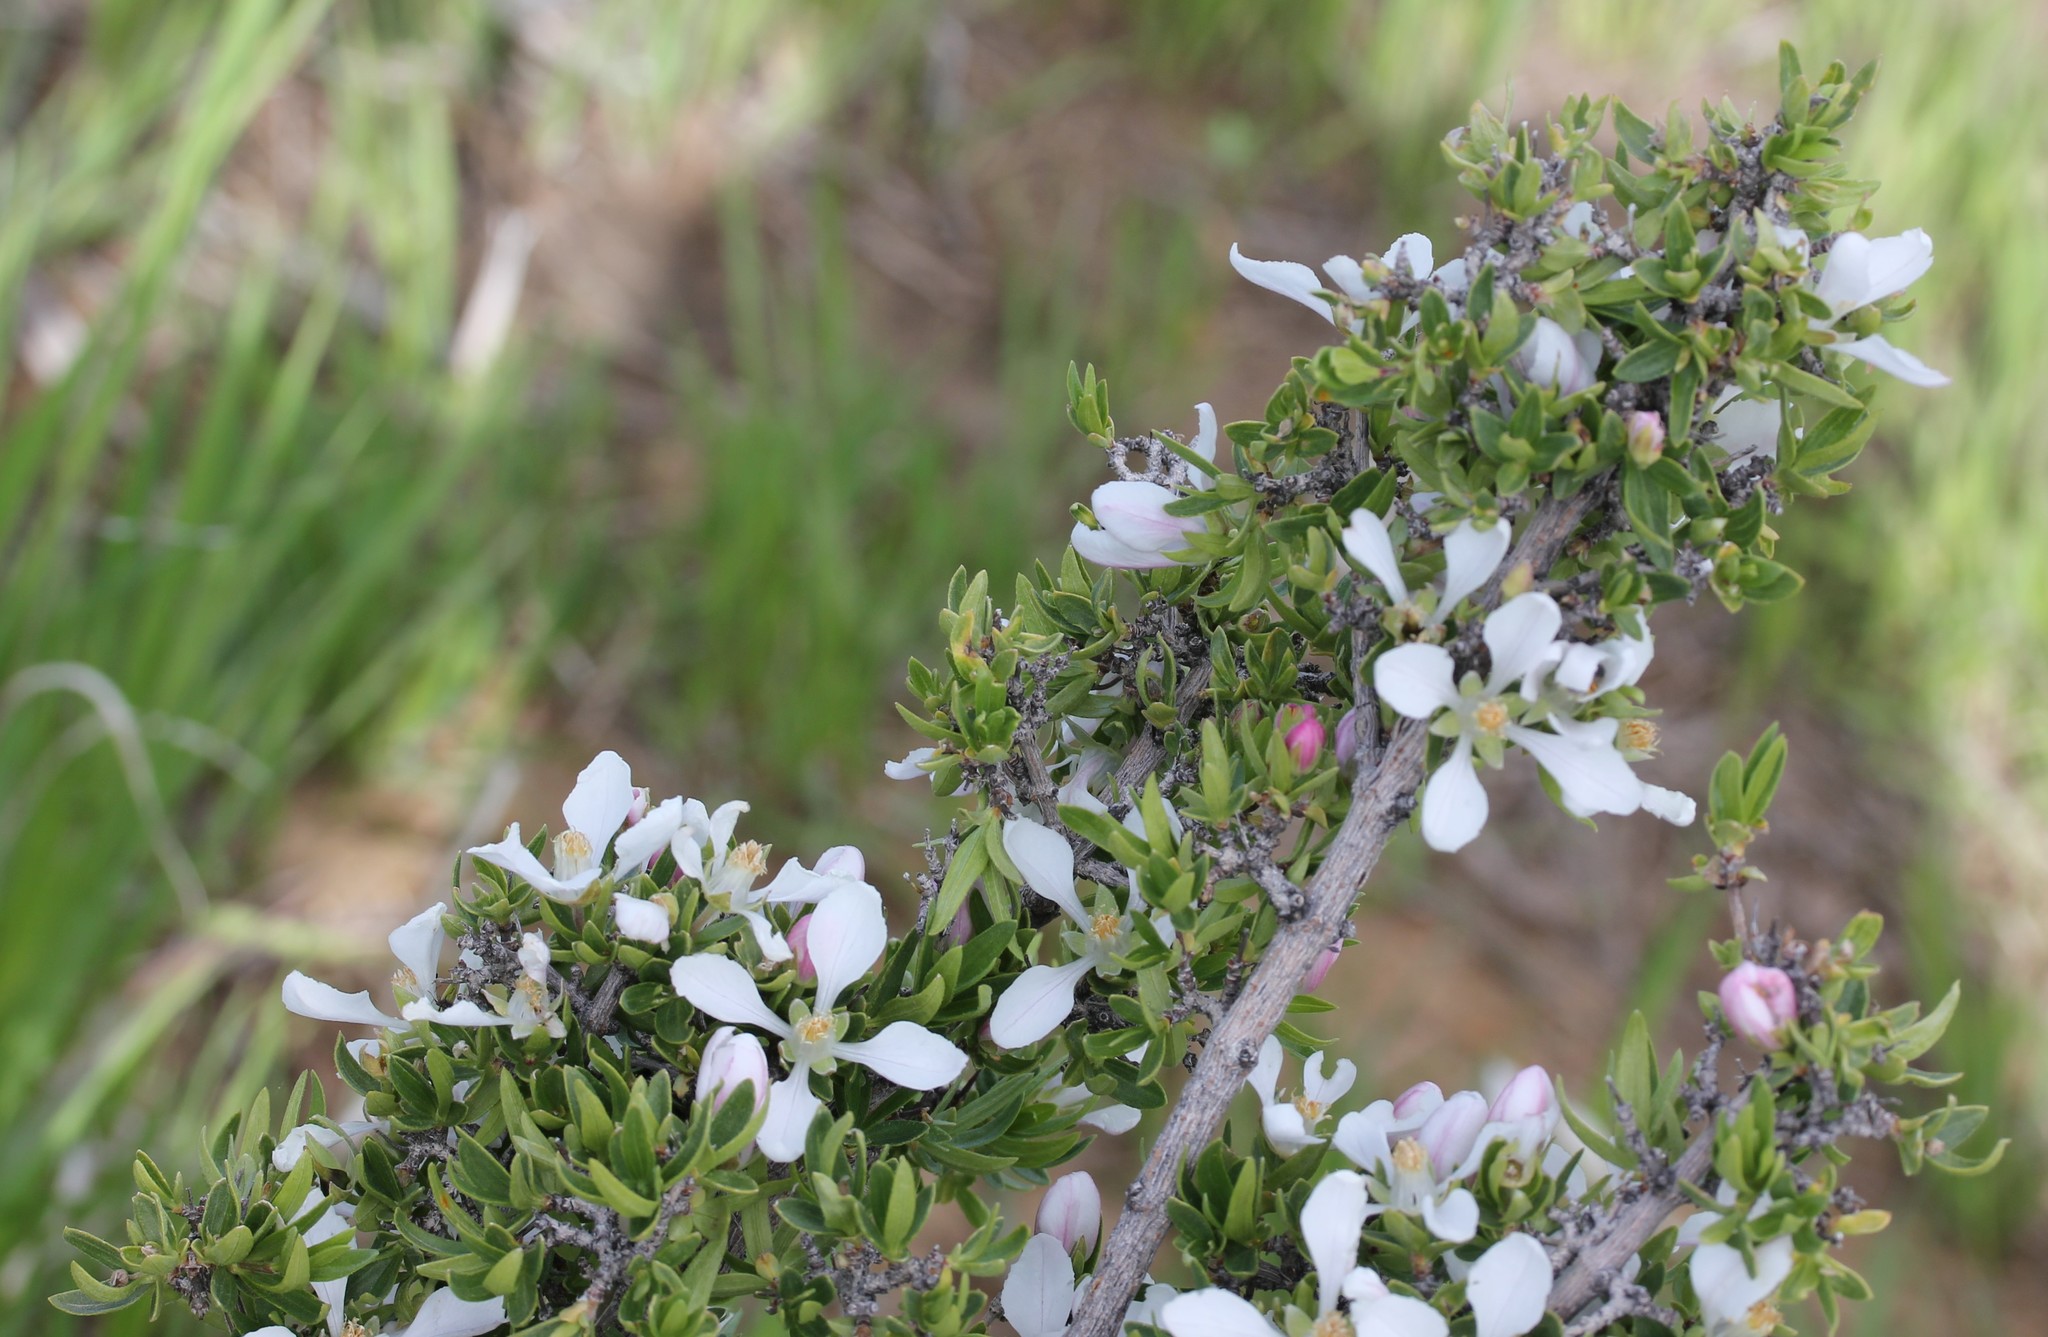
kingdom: Plantae
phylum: Tracheophyta
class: Magnoliopsida
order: Cornales
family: Hydrangeaceae
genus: Fendlera
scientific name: Fendlera rupicola
